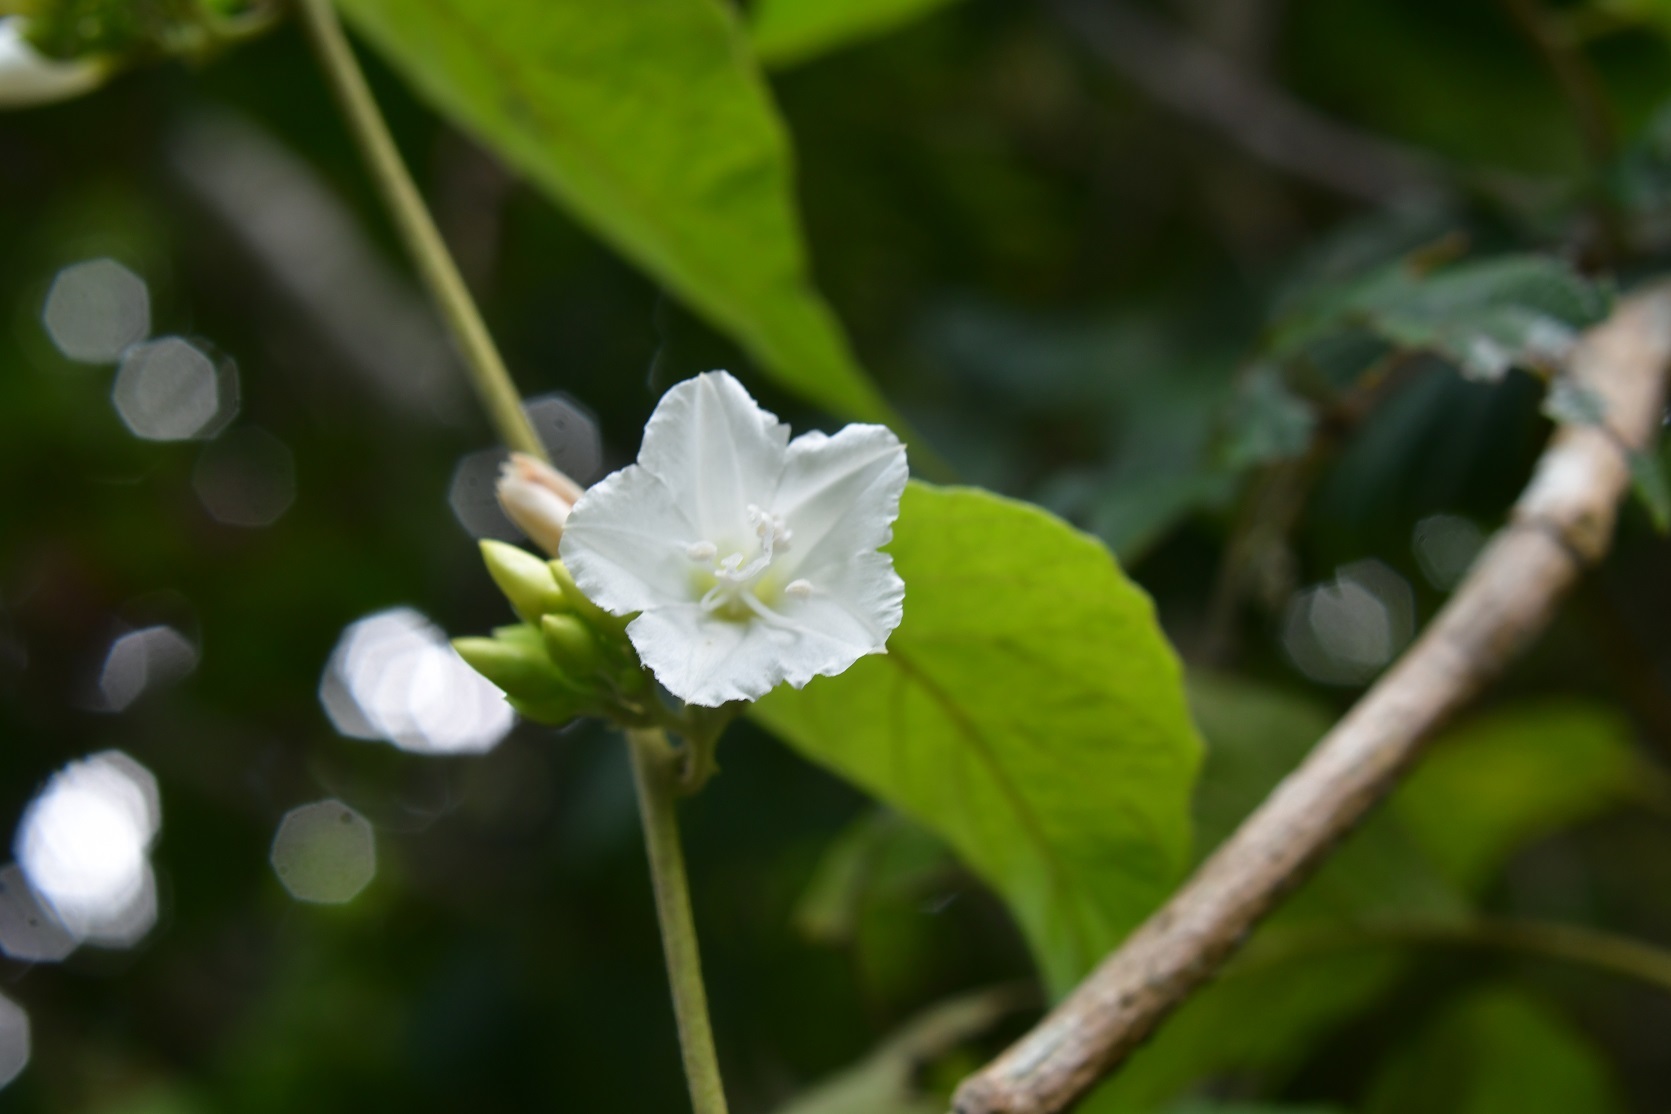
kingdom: Plantae
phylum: Tracheophyta
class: Magnoliopsida
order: Solanales
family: Convolvulaceae
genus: Jacquemontia
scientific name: Jacquemontia nodiflora
